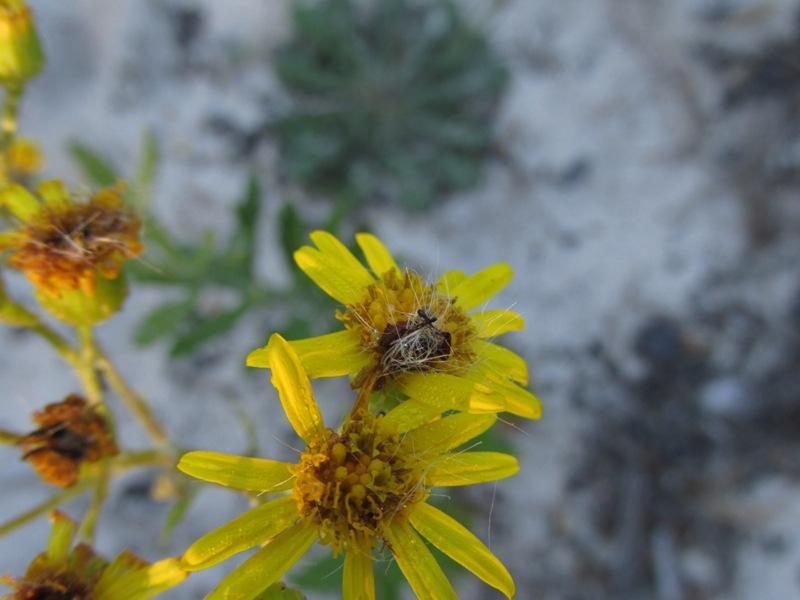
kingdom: Plantae
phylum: Tracheophyta
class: Magnoliopsida
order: Asterales
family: Asteraceae
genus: Senecio
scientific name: Senecio burchellii
